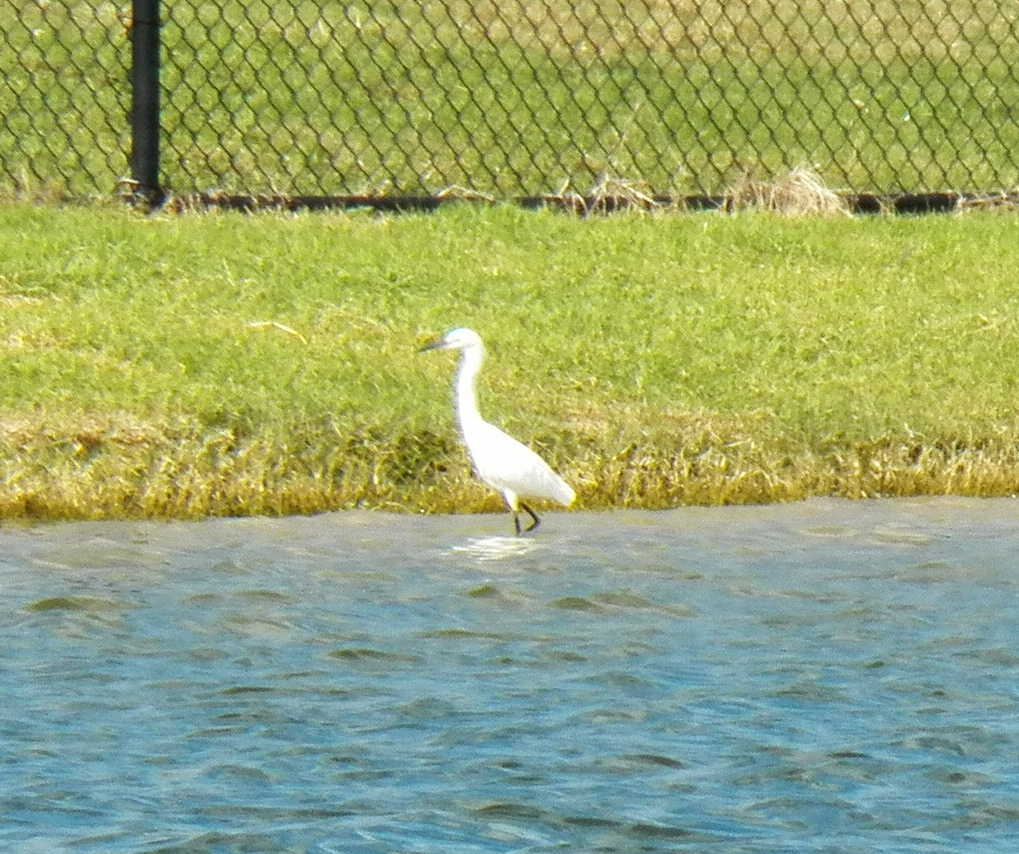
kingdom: Animalia
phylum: Chordata
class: Aves
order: Pelecaniformes
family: Ardeidae
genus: Egretta
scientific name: Egretta thula
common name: Snowy egret
